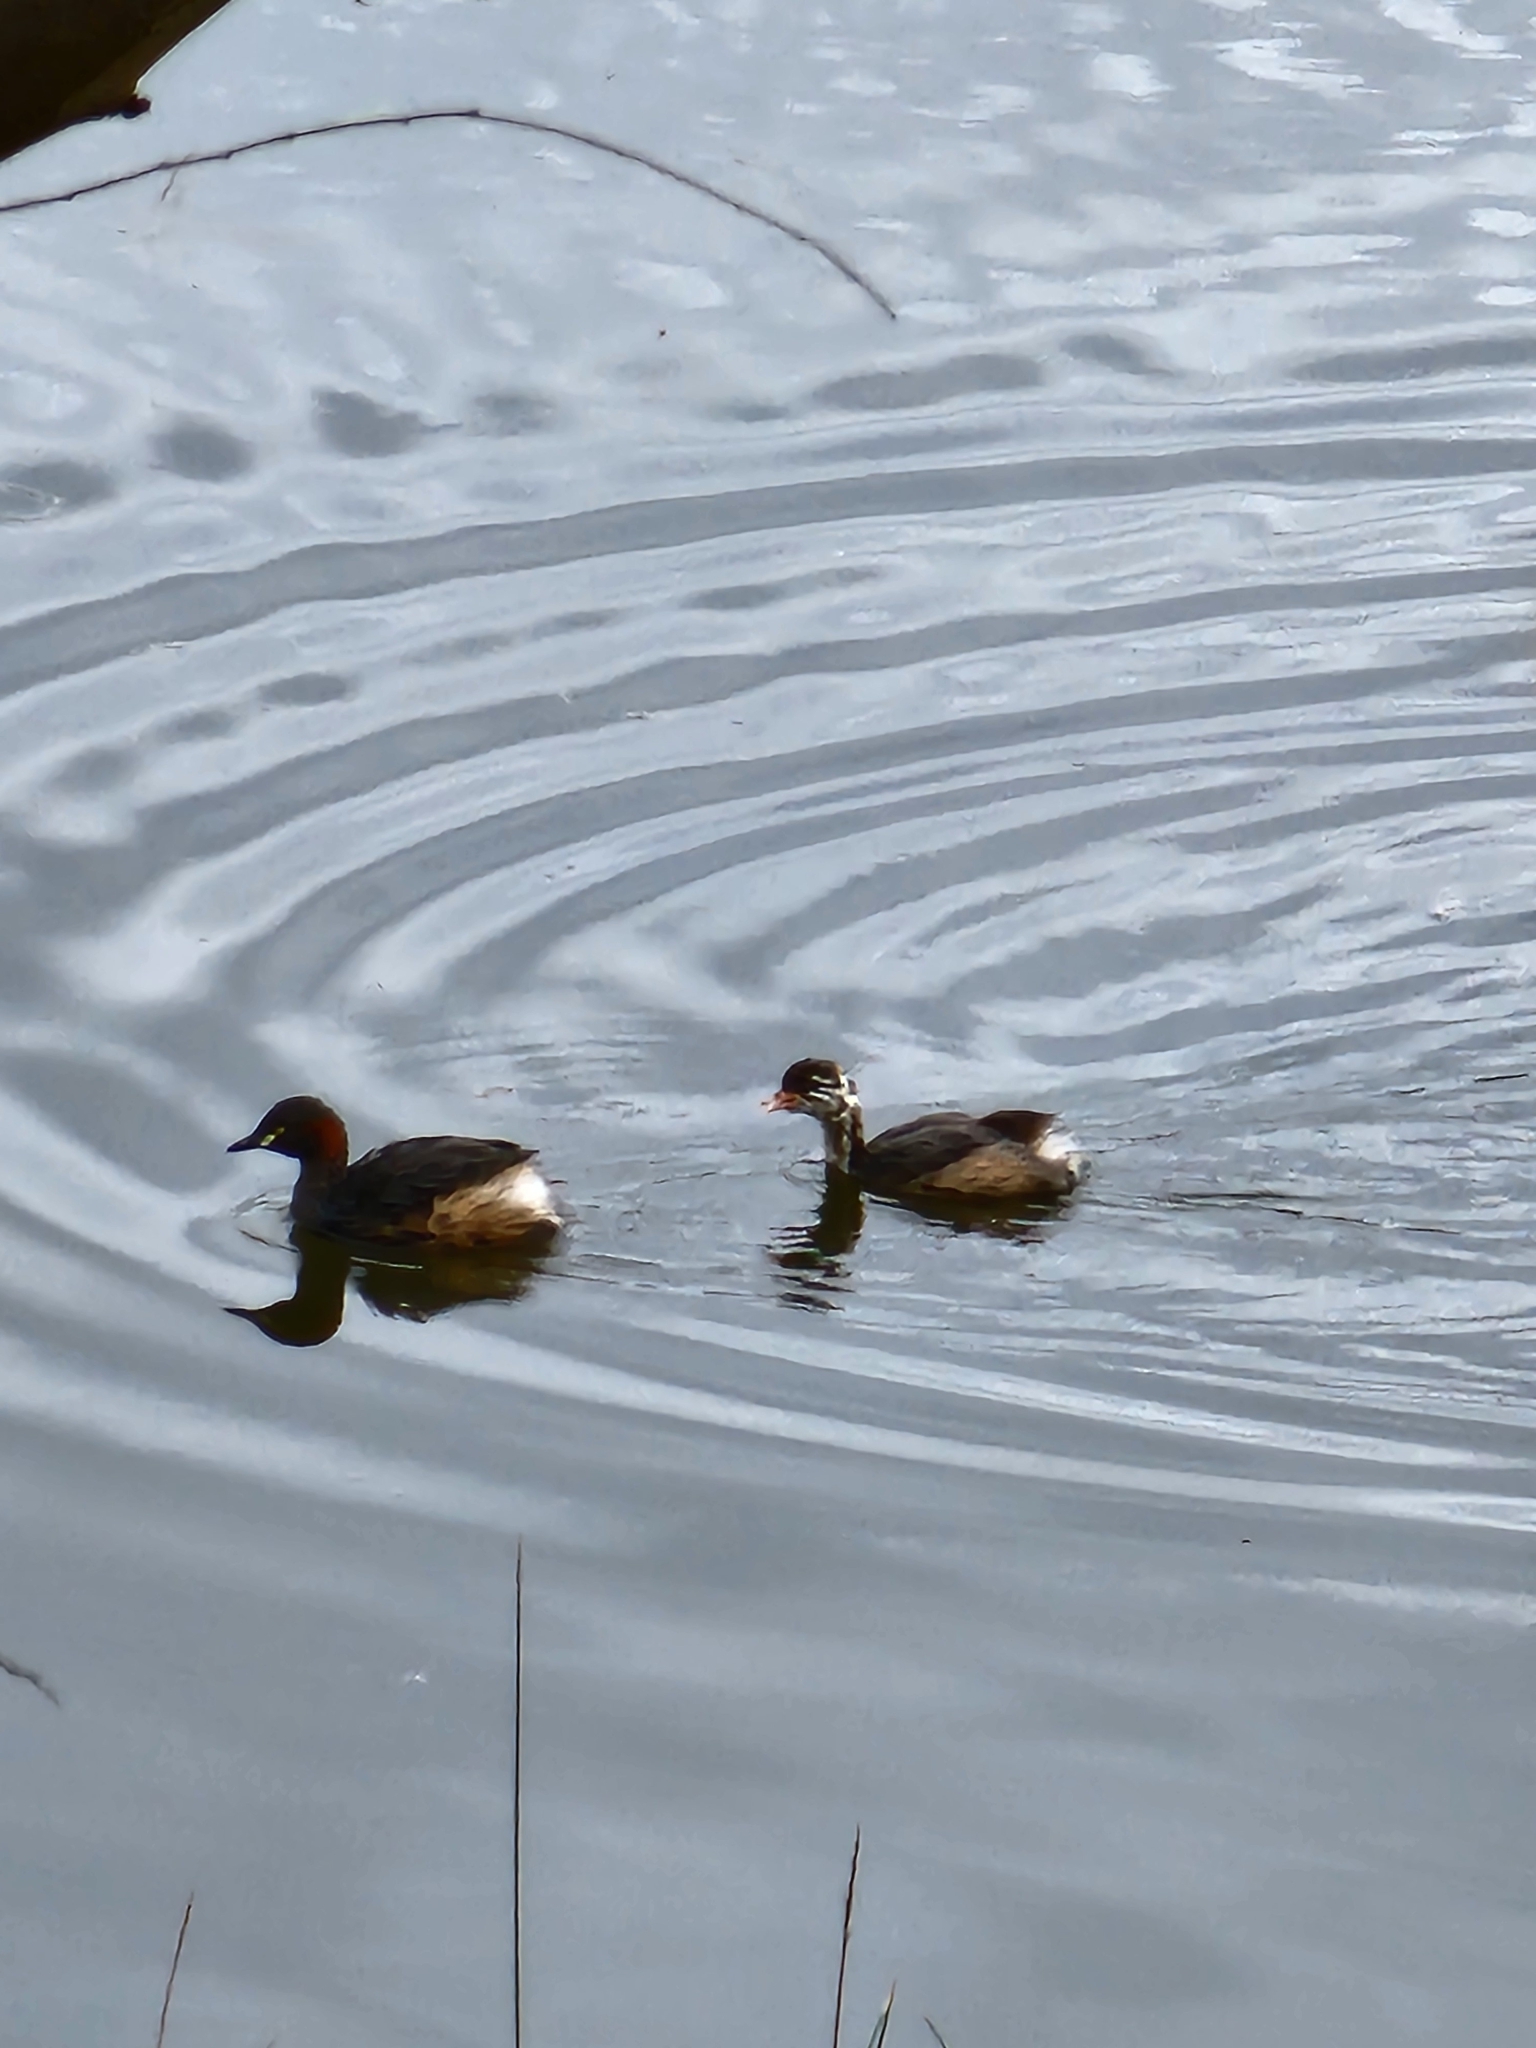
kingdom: Animalia
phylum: Chordata
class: Aves
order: Podicipediformes
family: Podicipedidae
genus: Tachybaptus
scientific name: Tachybaptus novaehollandiae
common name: Australasian grebe
